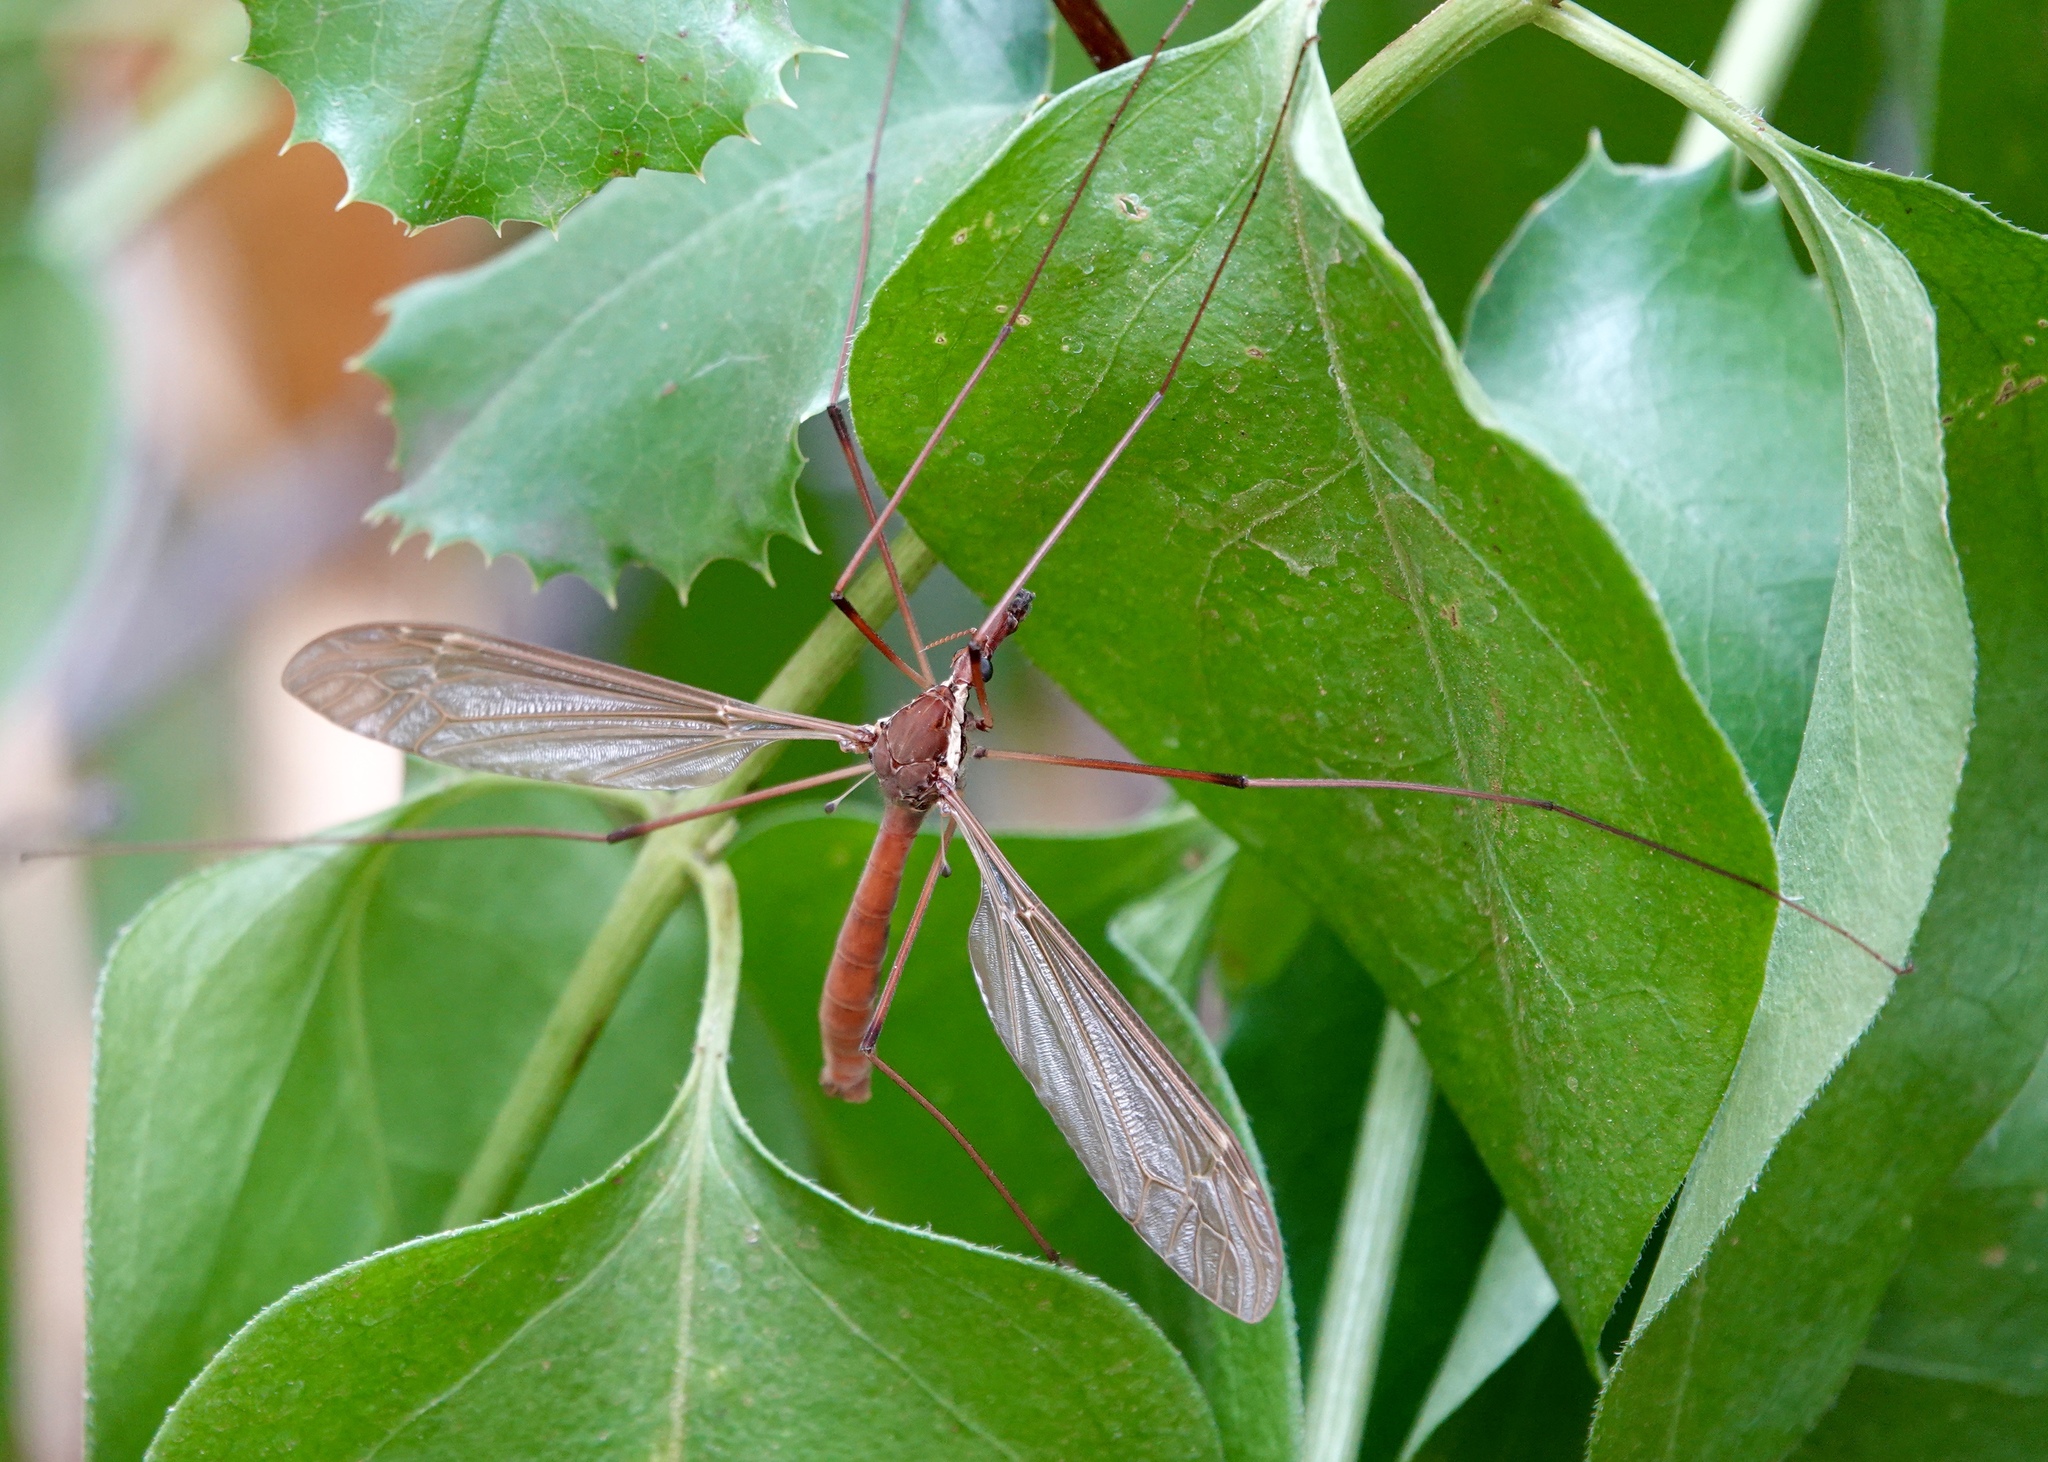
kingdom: Animalia
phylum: Arthropoda
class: Insecta
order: Diptera
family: Tipulidae
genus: Holorusia
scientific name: Holorusia hespera
